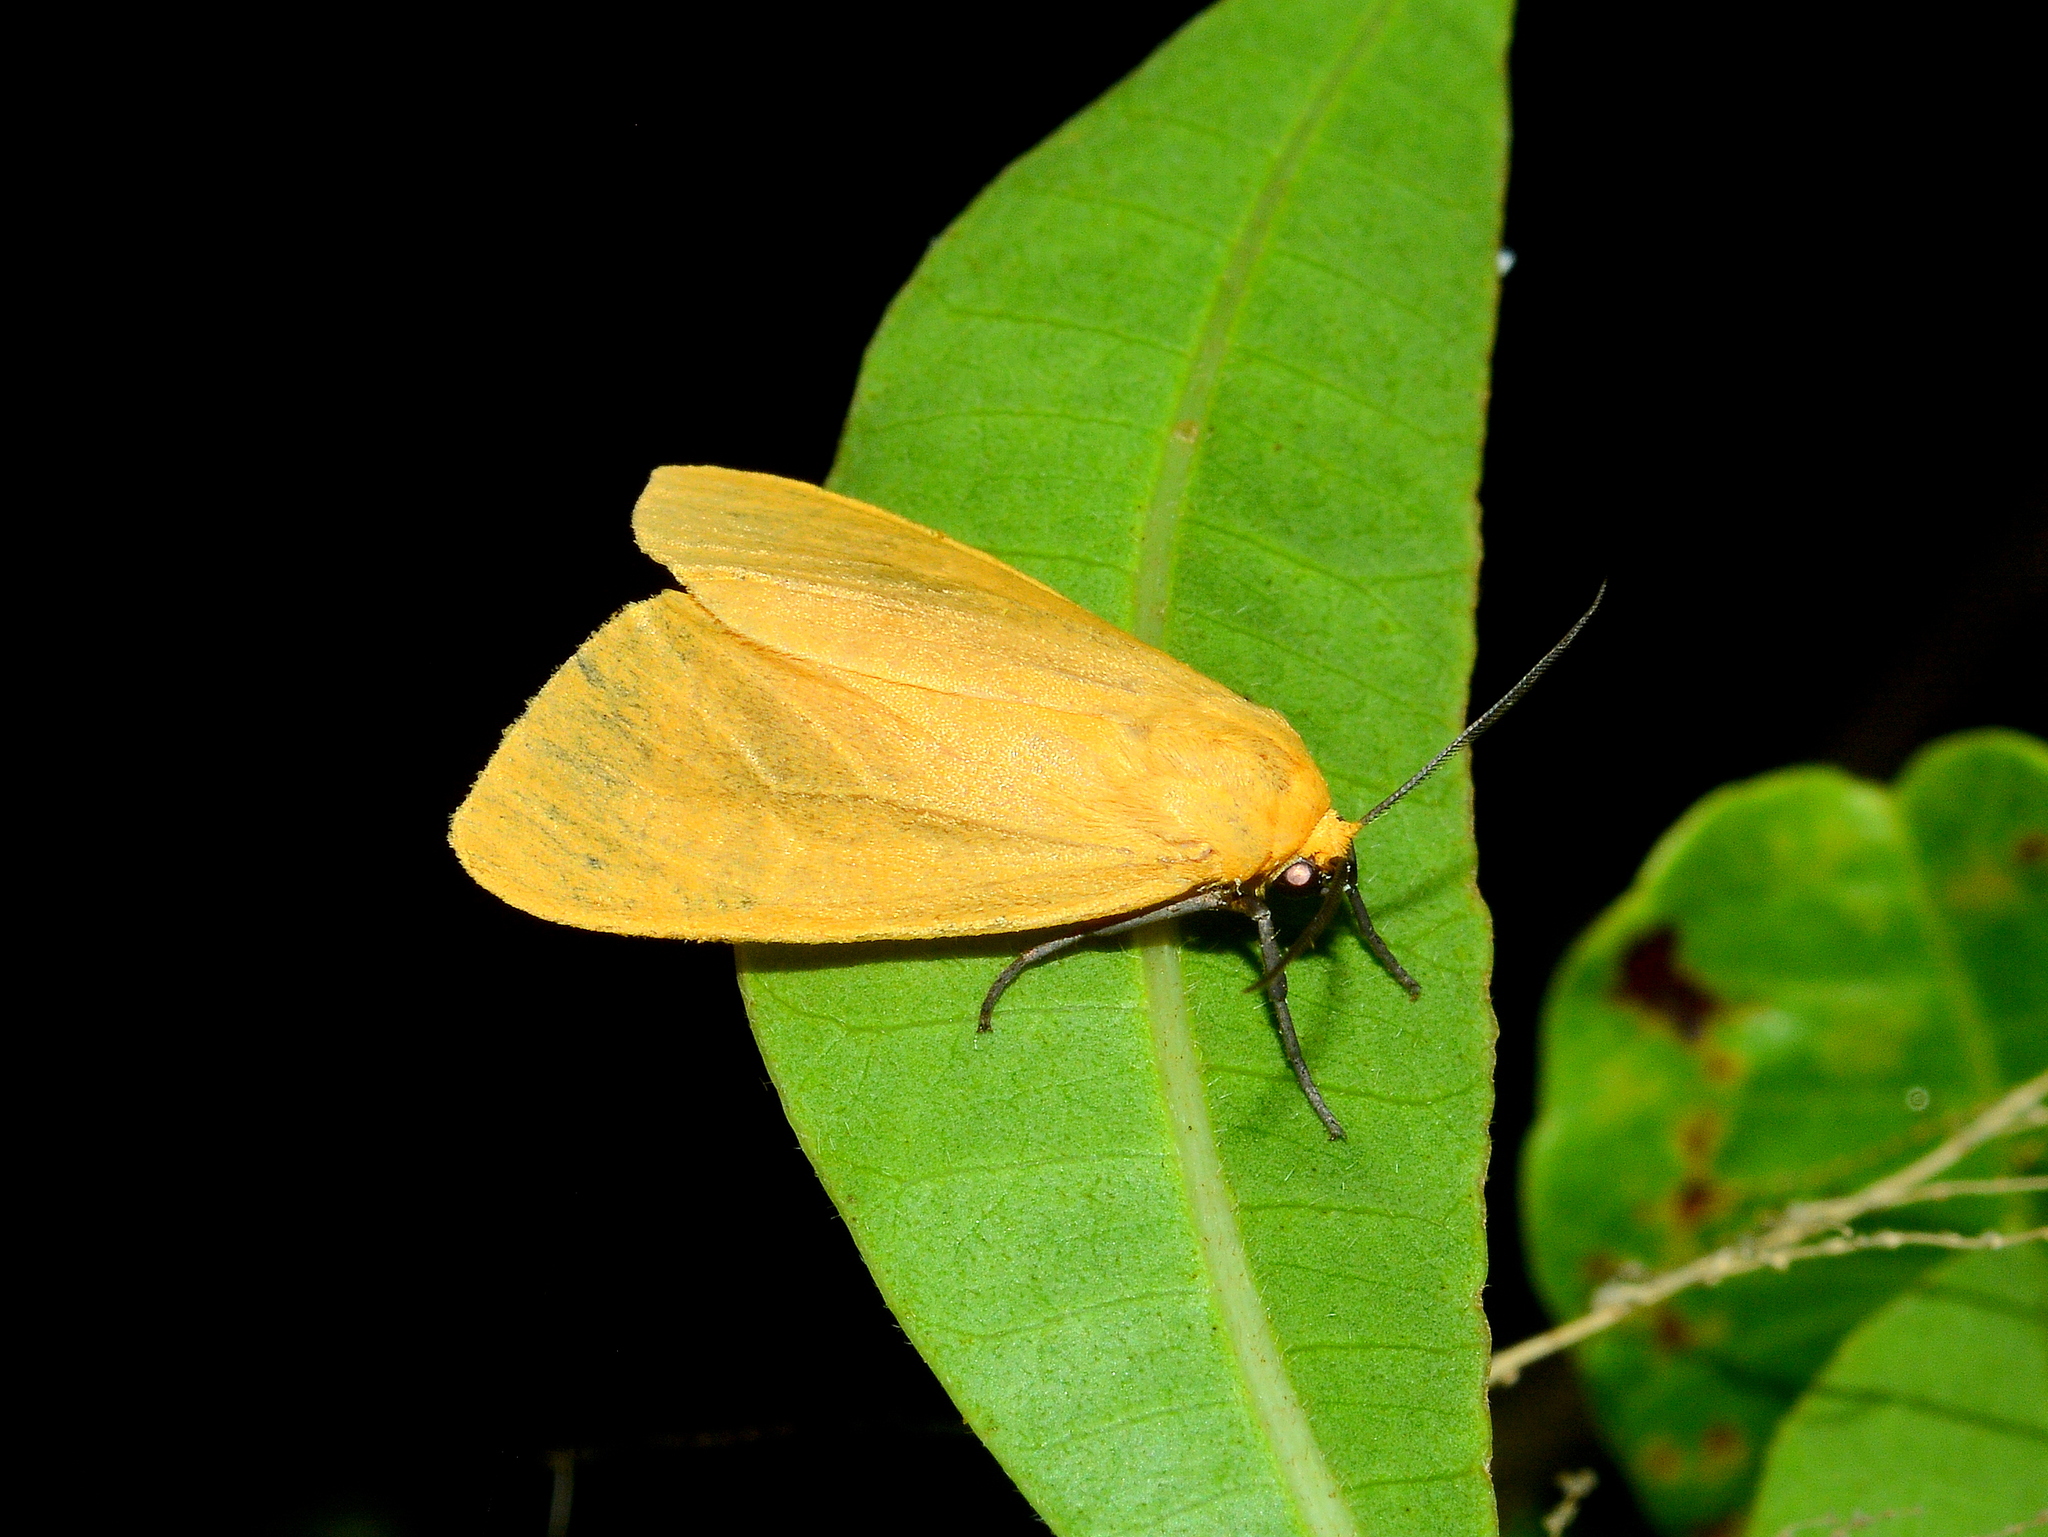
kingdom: Animalia
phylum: Arthropoda
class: Insecta
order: Lepidoptera
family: Erebidae
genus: Pareuchaetes
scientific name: Pareuchaetes aurata
